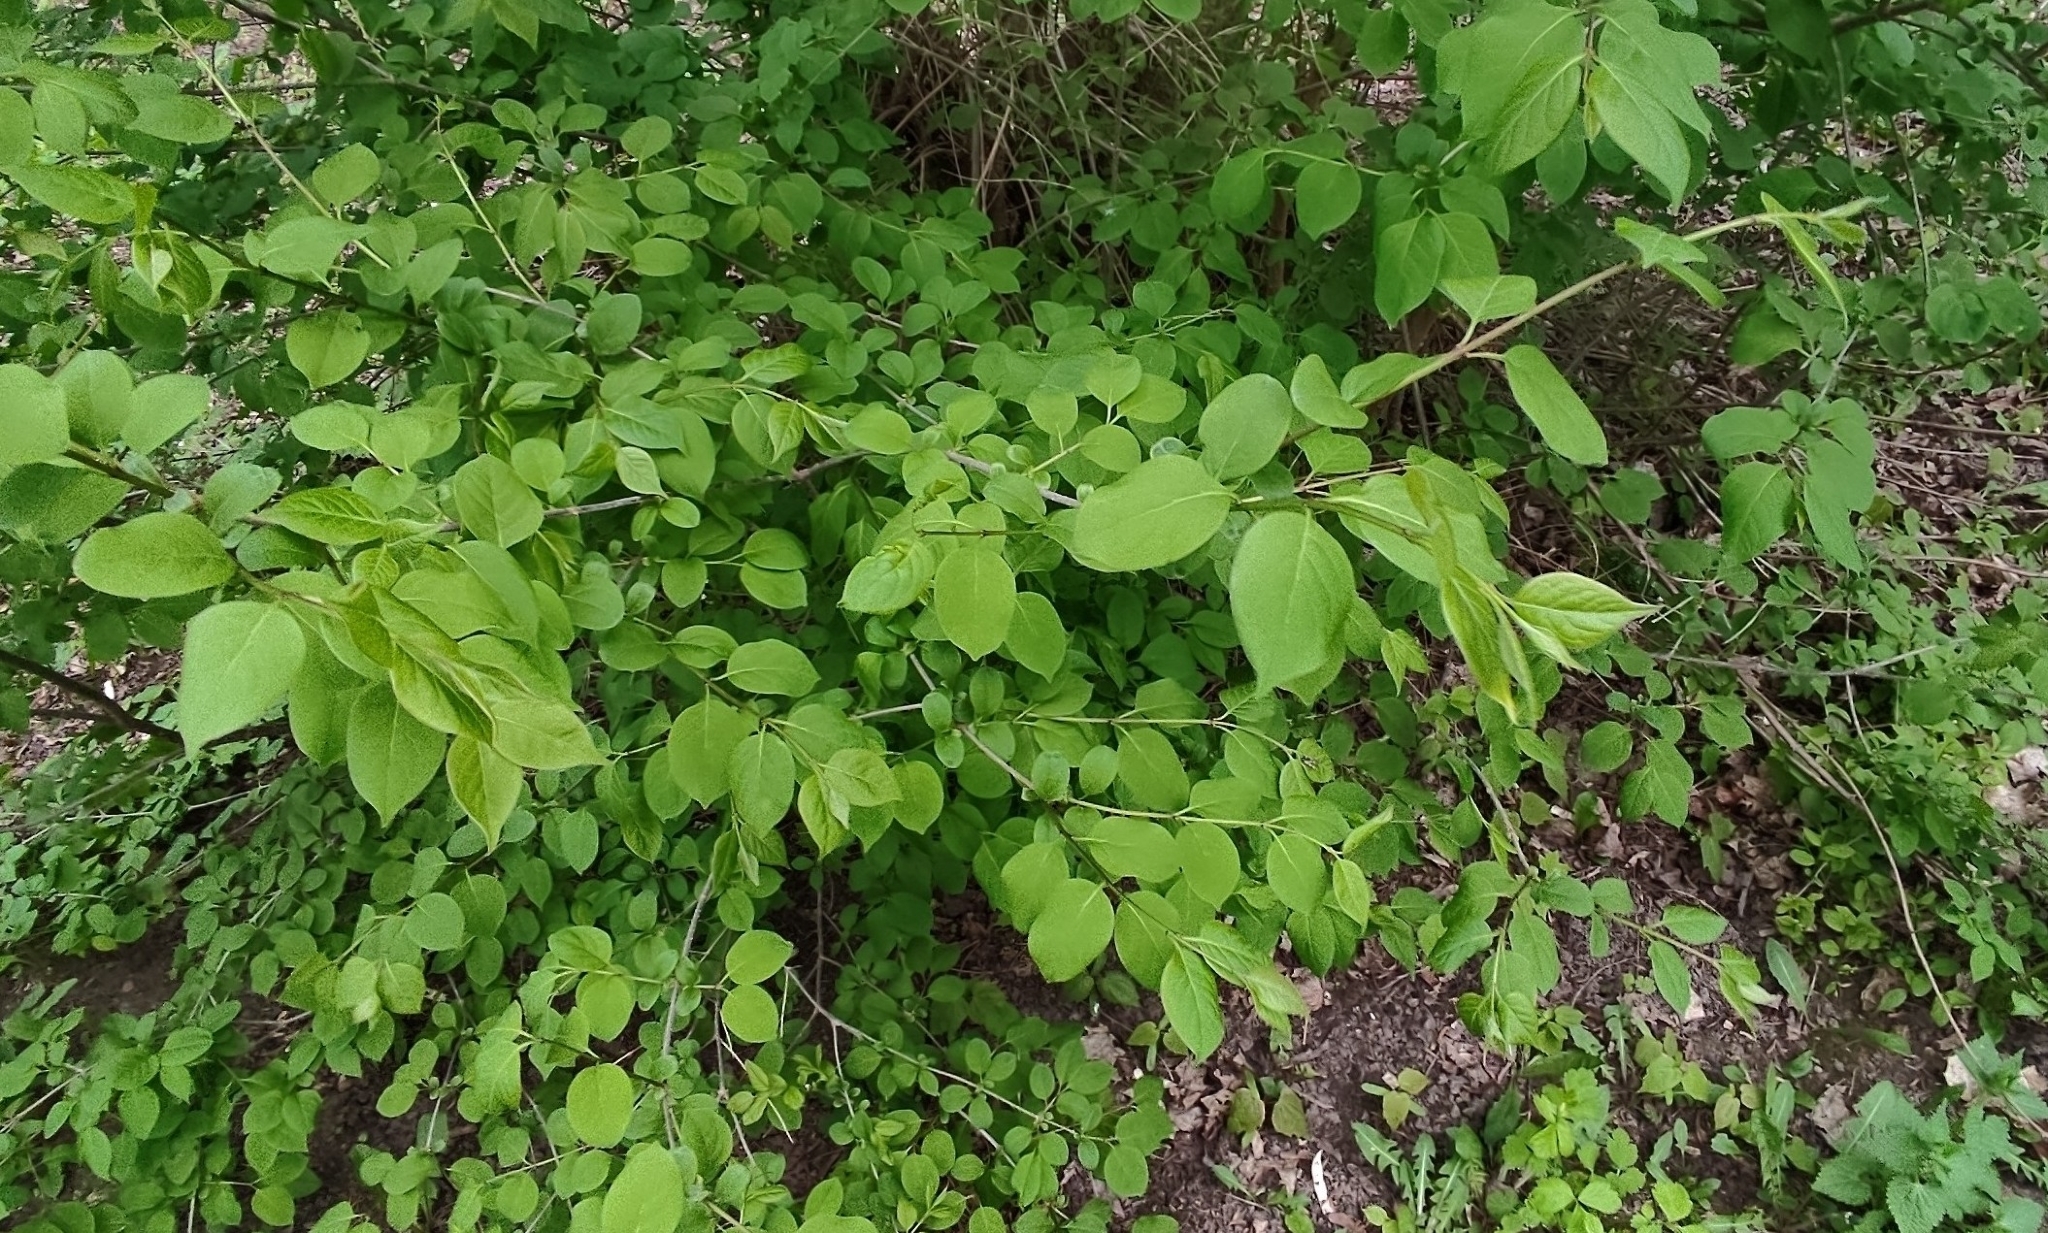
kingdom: Plantae
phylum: Tracheophyta
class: Magnoliopsida
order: Dipsacales
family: Caprifoliaceae
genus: Lonicera
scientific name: Lonicera xylosteum
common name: Fly honeysuckle
